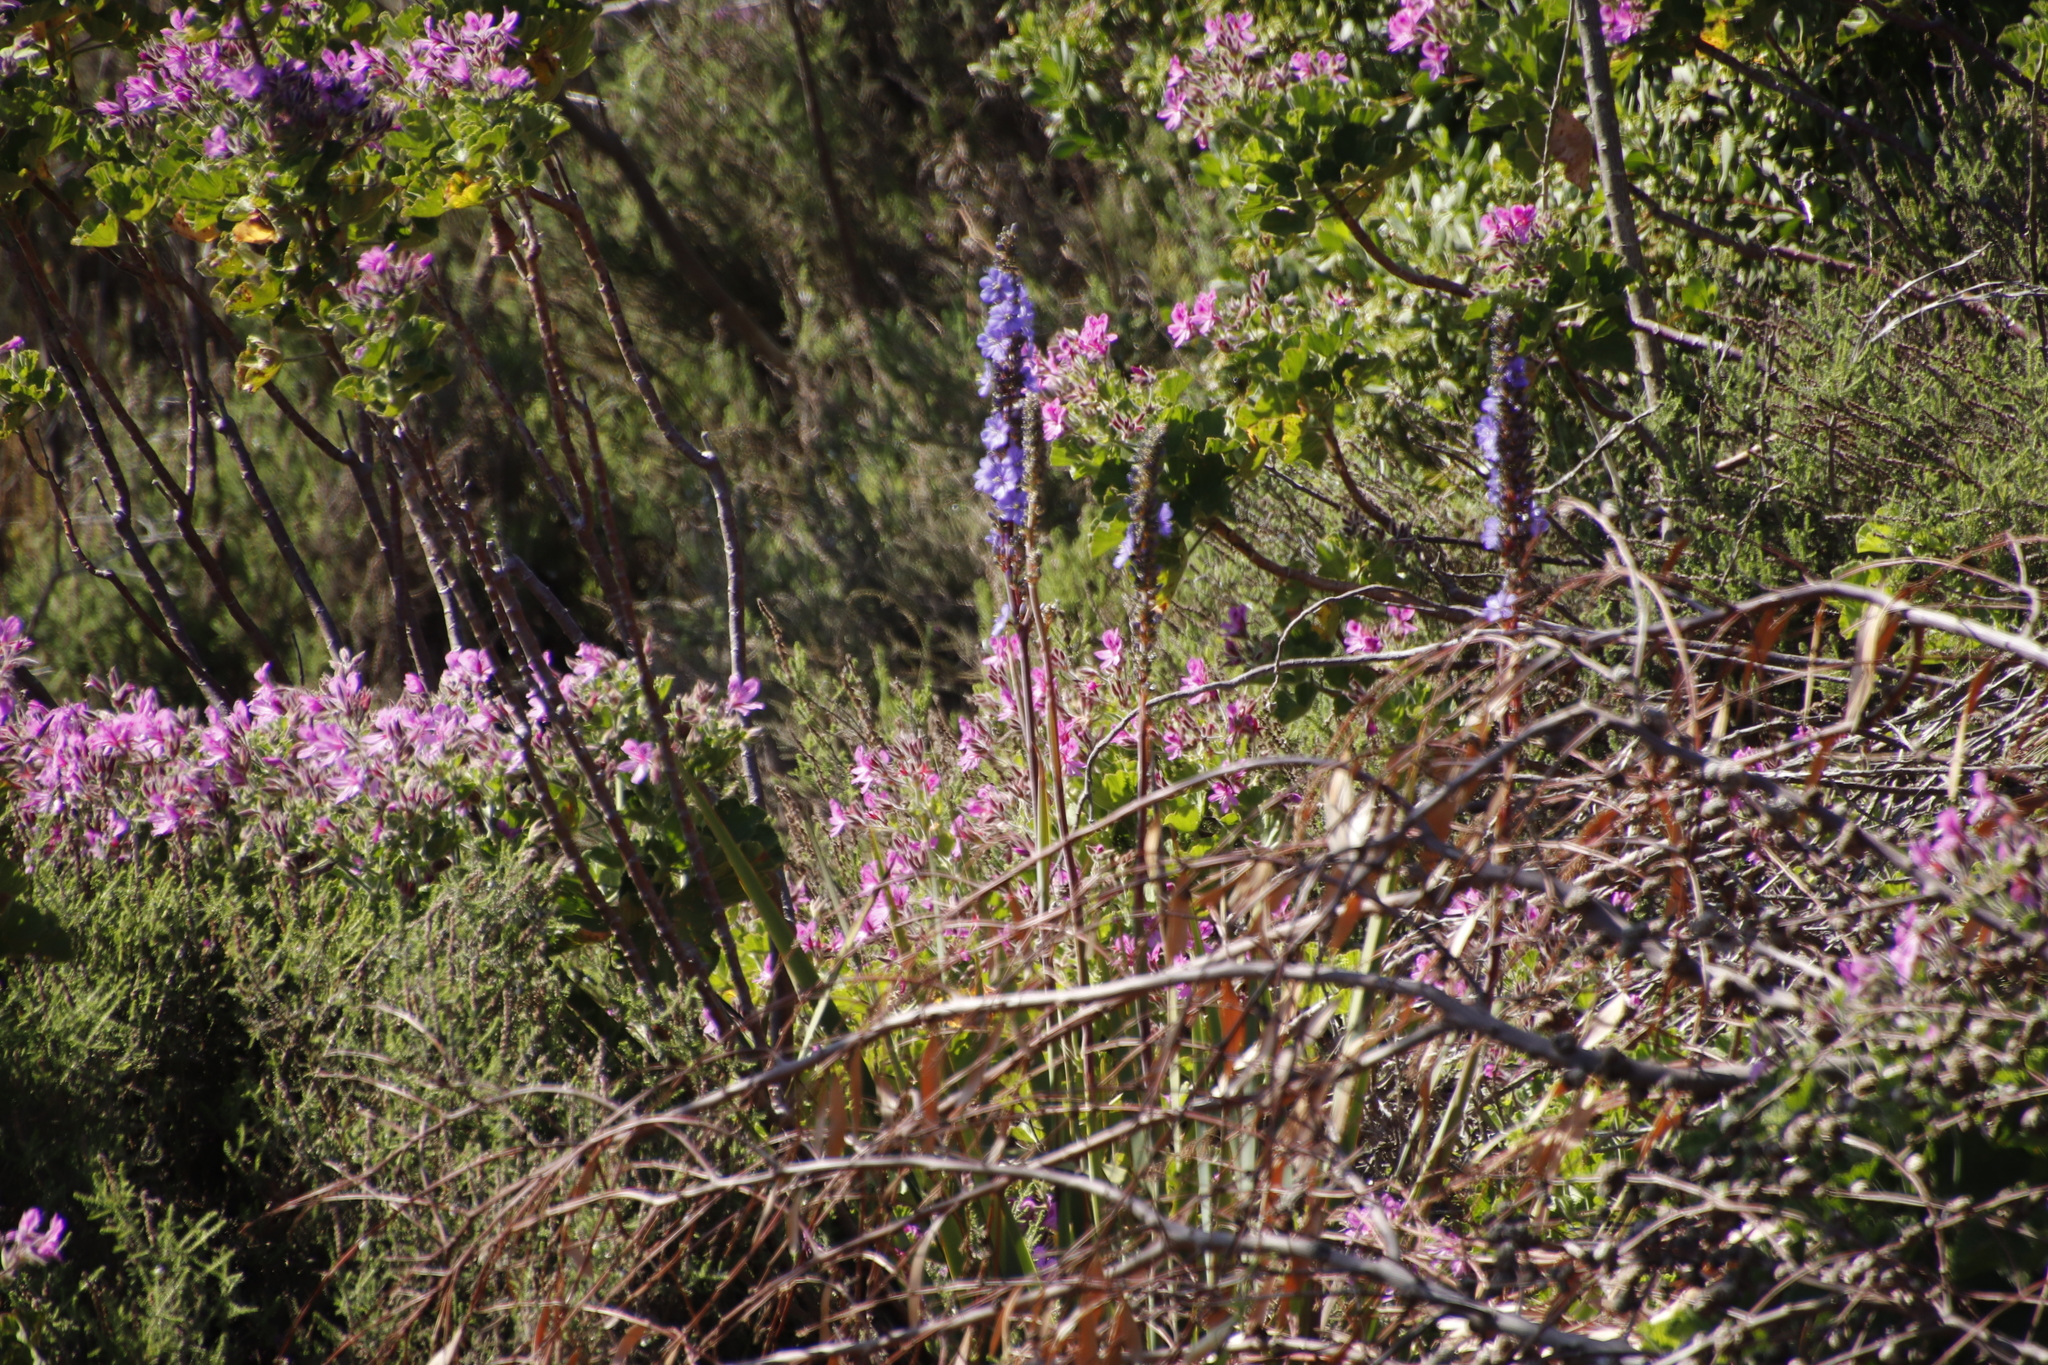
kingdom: Plantae
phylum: Tracheophyta
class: Liliopsida
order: Asparagales
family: Iridaceae
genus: Aristea
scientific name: Aristea capitata
